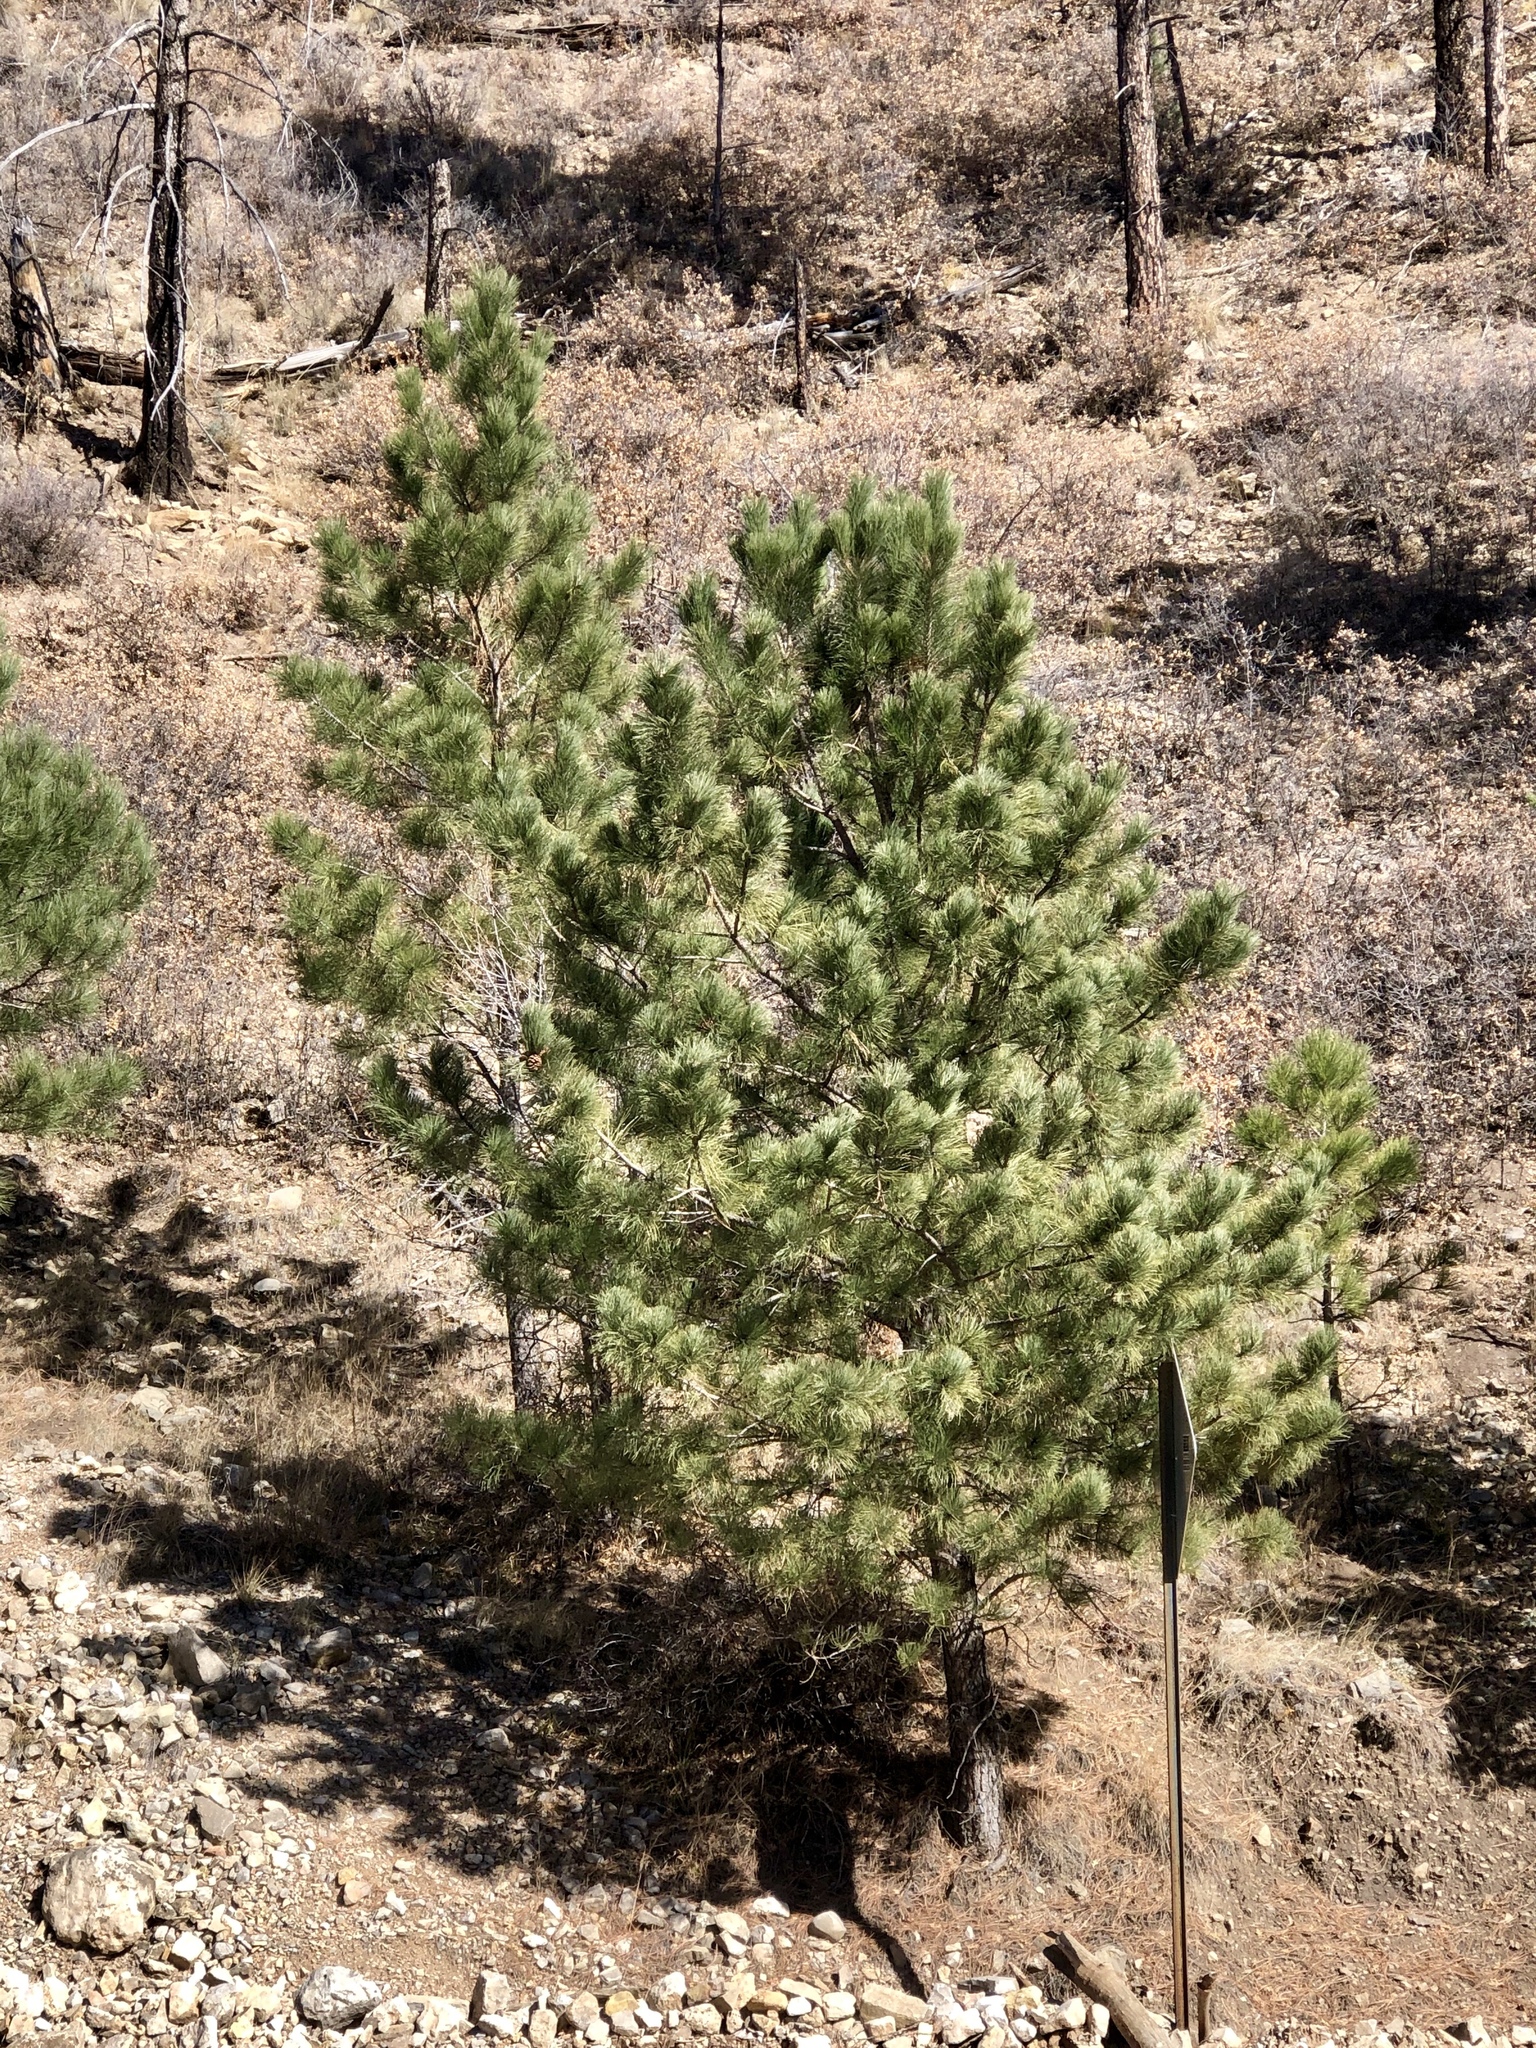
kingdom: Plantae
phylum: Tracheophyta
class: Pinopsida
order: Pinales
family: Pinaceae
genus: Pinus
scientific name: Pinus ponderosa
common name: Western yellow-pine
